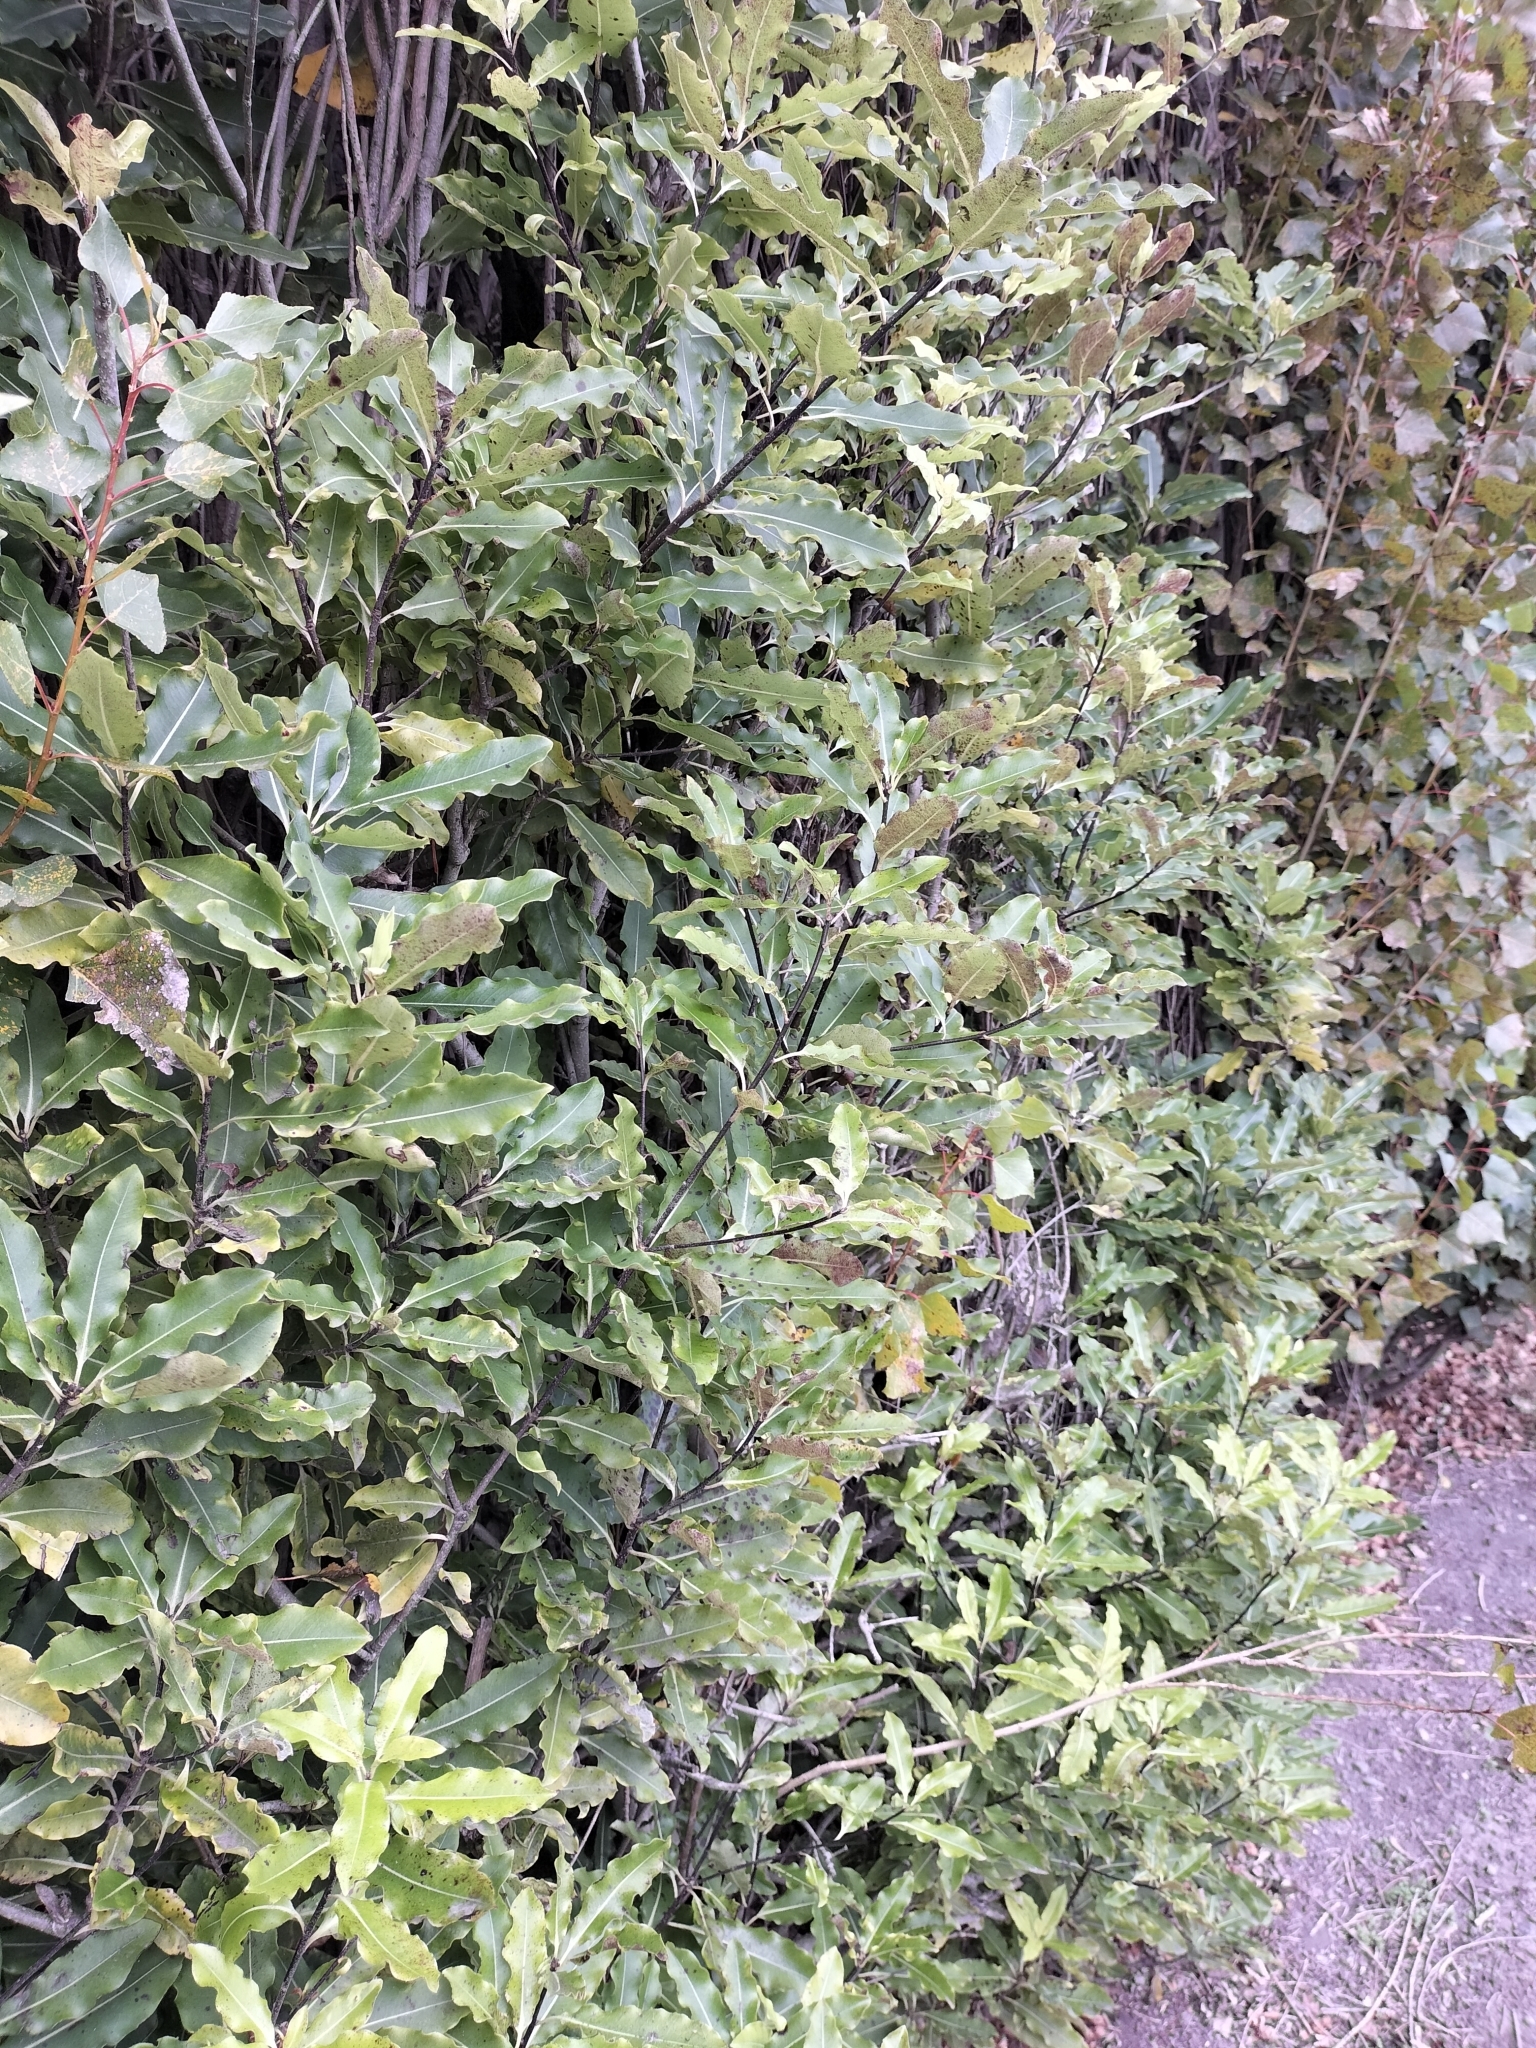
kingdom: Plantae
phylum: Tracheophyta
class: Magnoliopsida
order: Apiales
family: Pittosporaceae
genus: Pittosporum
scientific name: Pittosporum eugenioides
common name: Lemonwood
